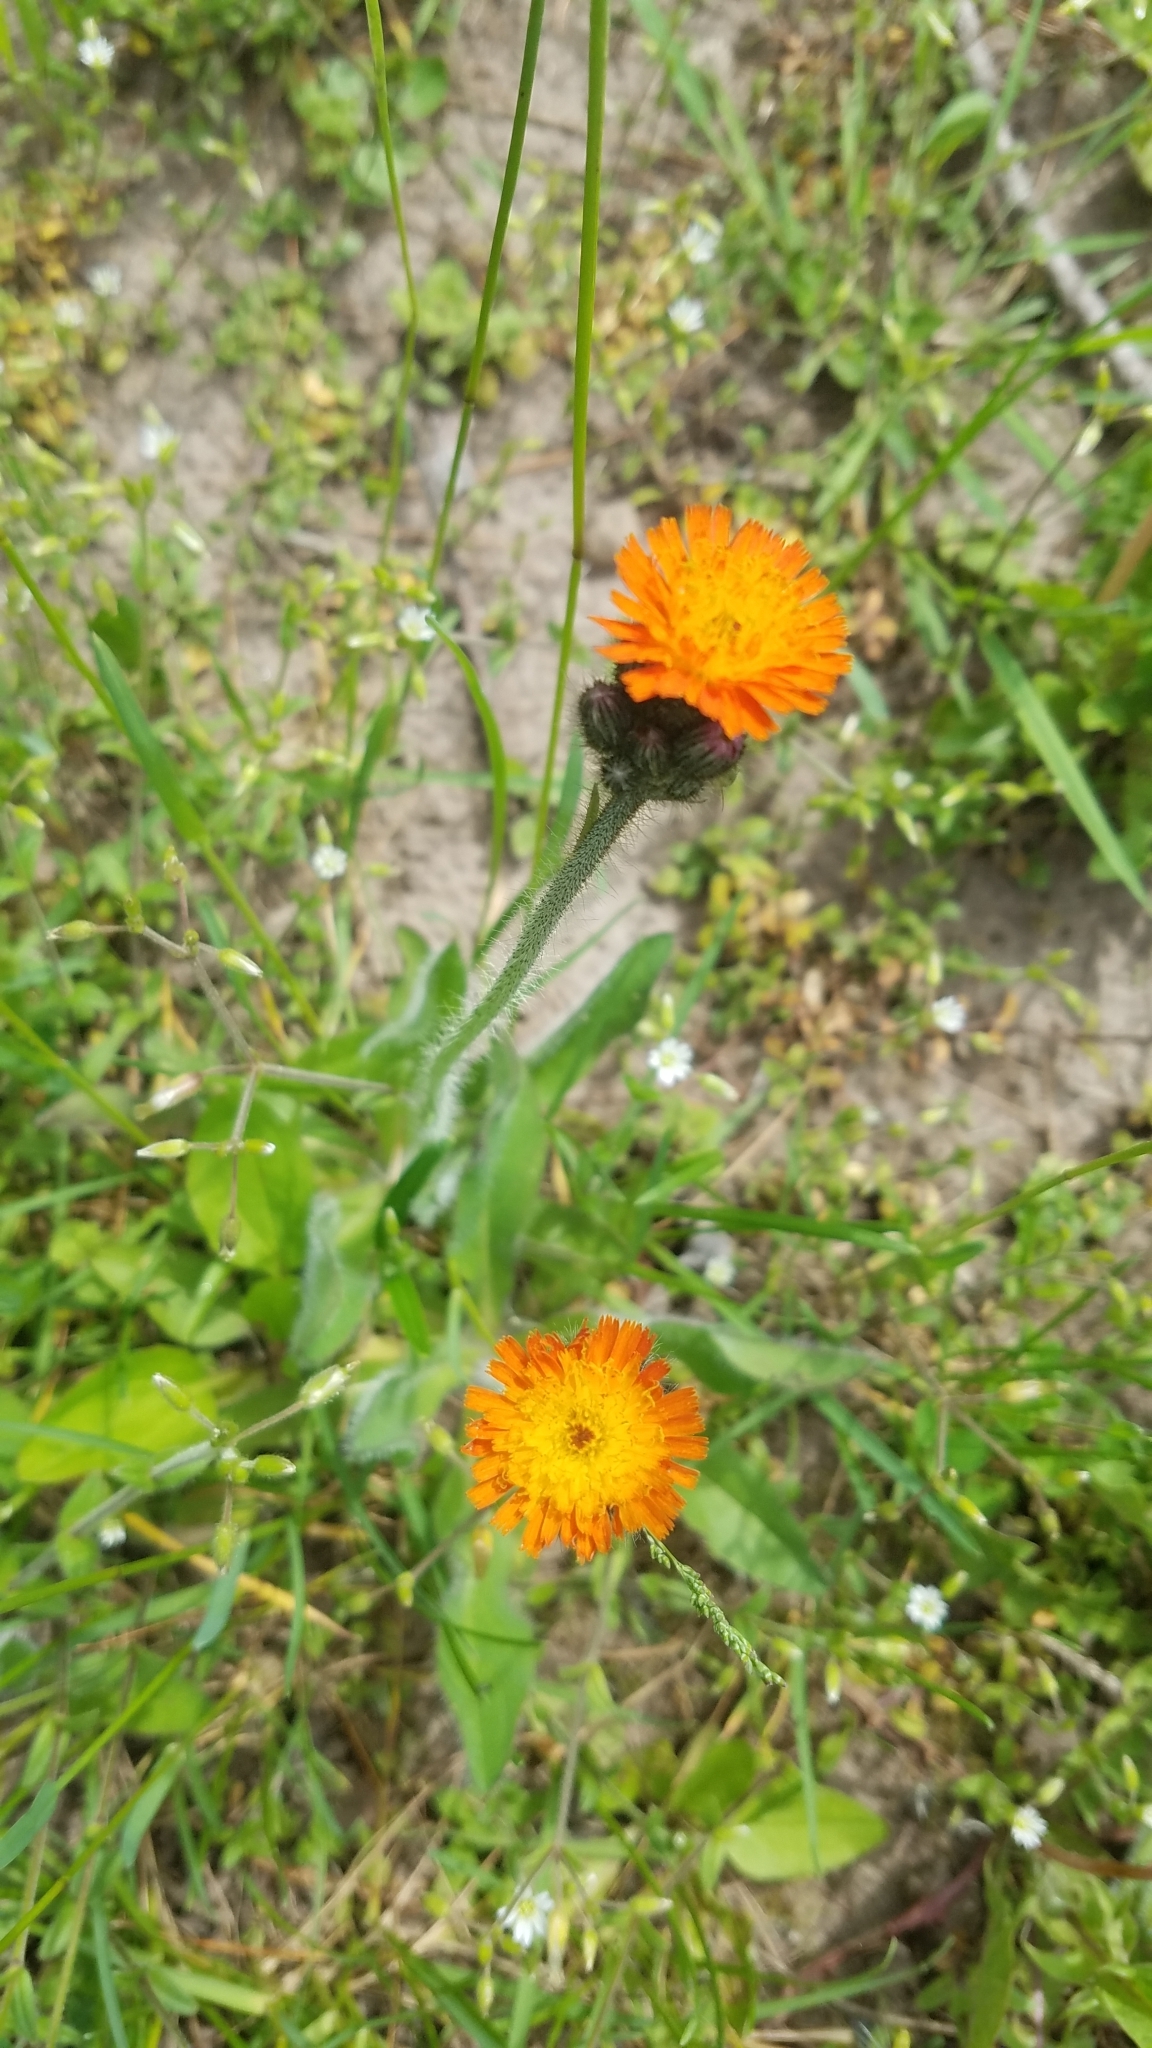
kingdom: Plantae
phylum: Tracheophyta
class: Magnoliopsida
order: Asterales
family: Asteraceae
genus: Pilosella
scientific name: Pilosella aurantiaca
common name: Fox-and-cubs
